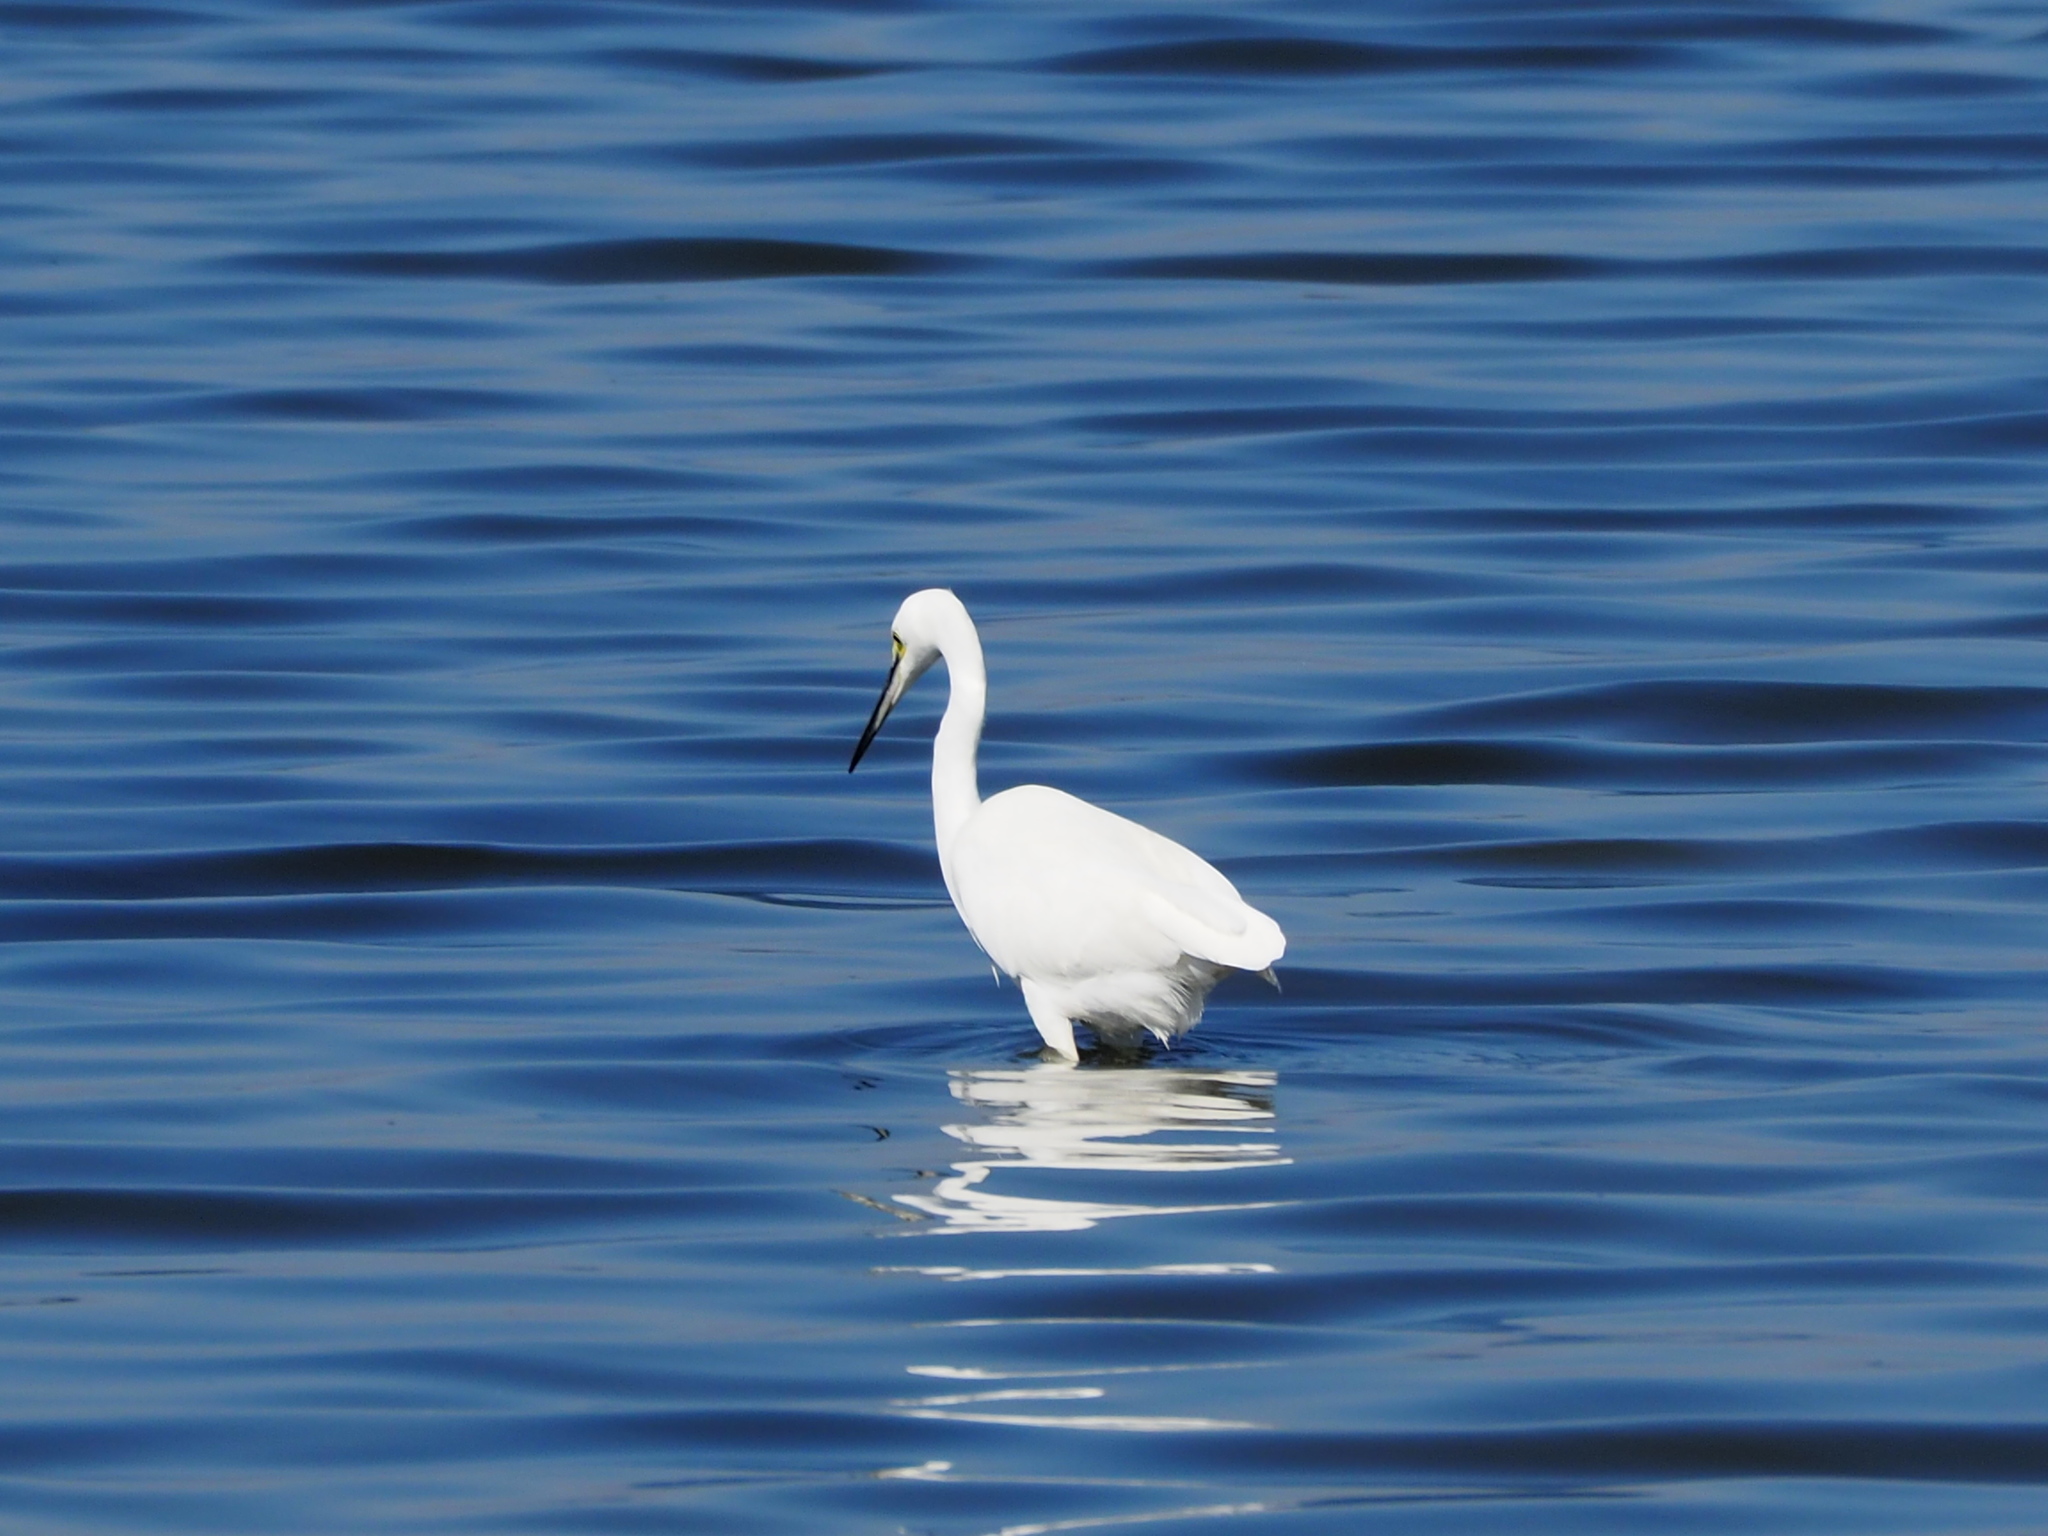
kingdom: Animalia
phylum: Chordata
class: Aves
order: Pelecaniformes
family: Ardeidae
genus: Egretta
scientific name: Egretta garzetta
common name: Little egret
